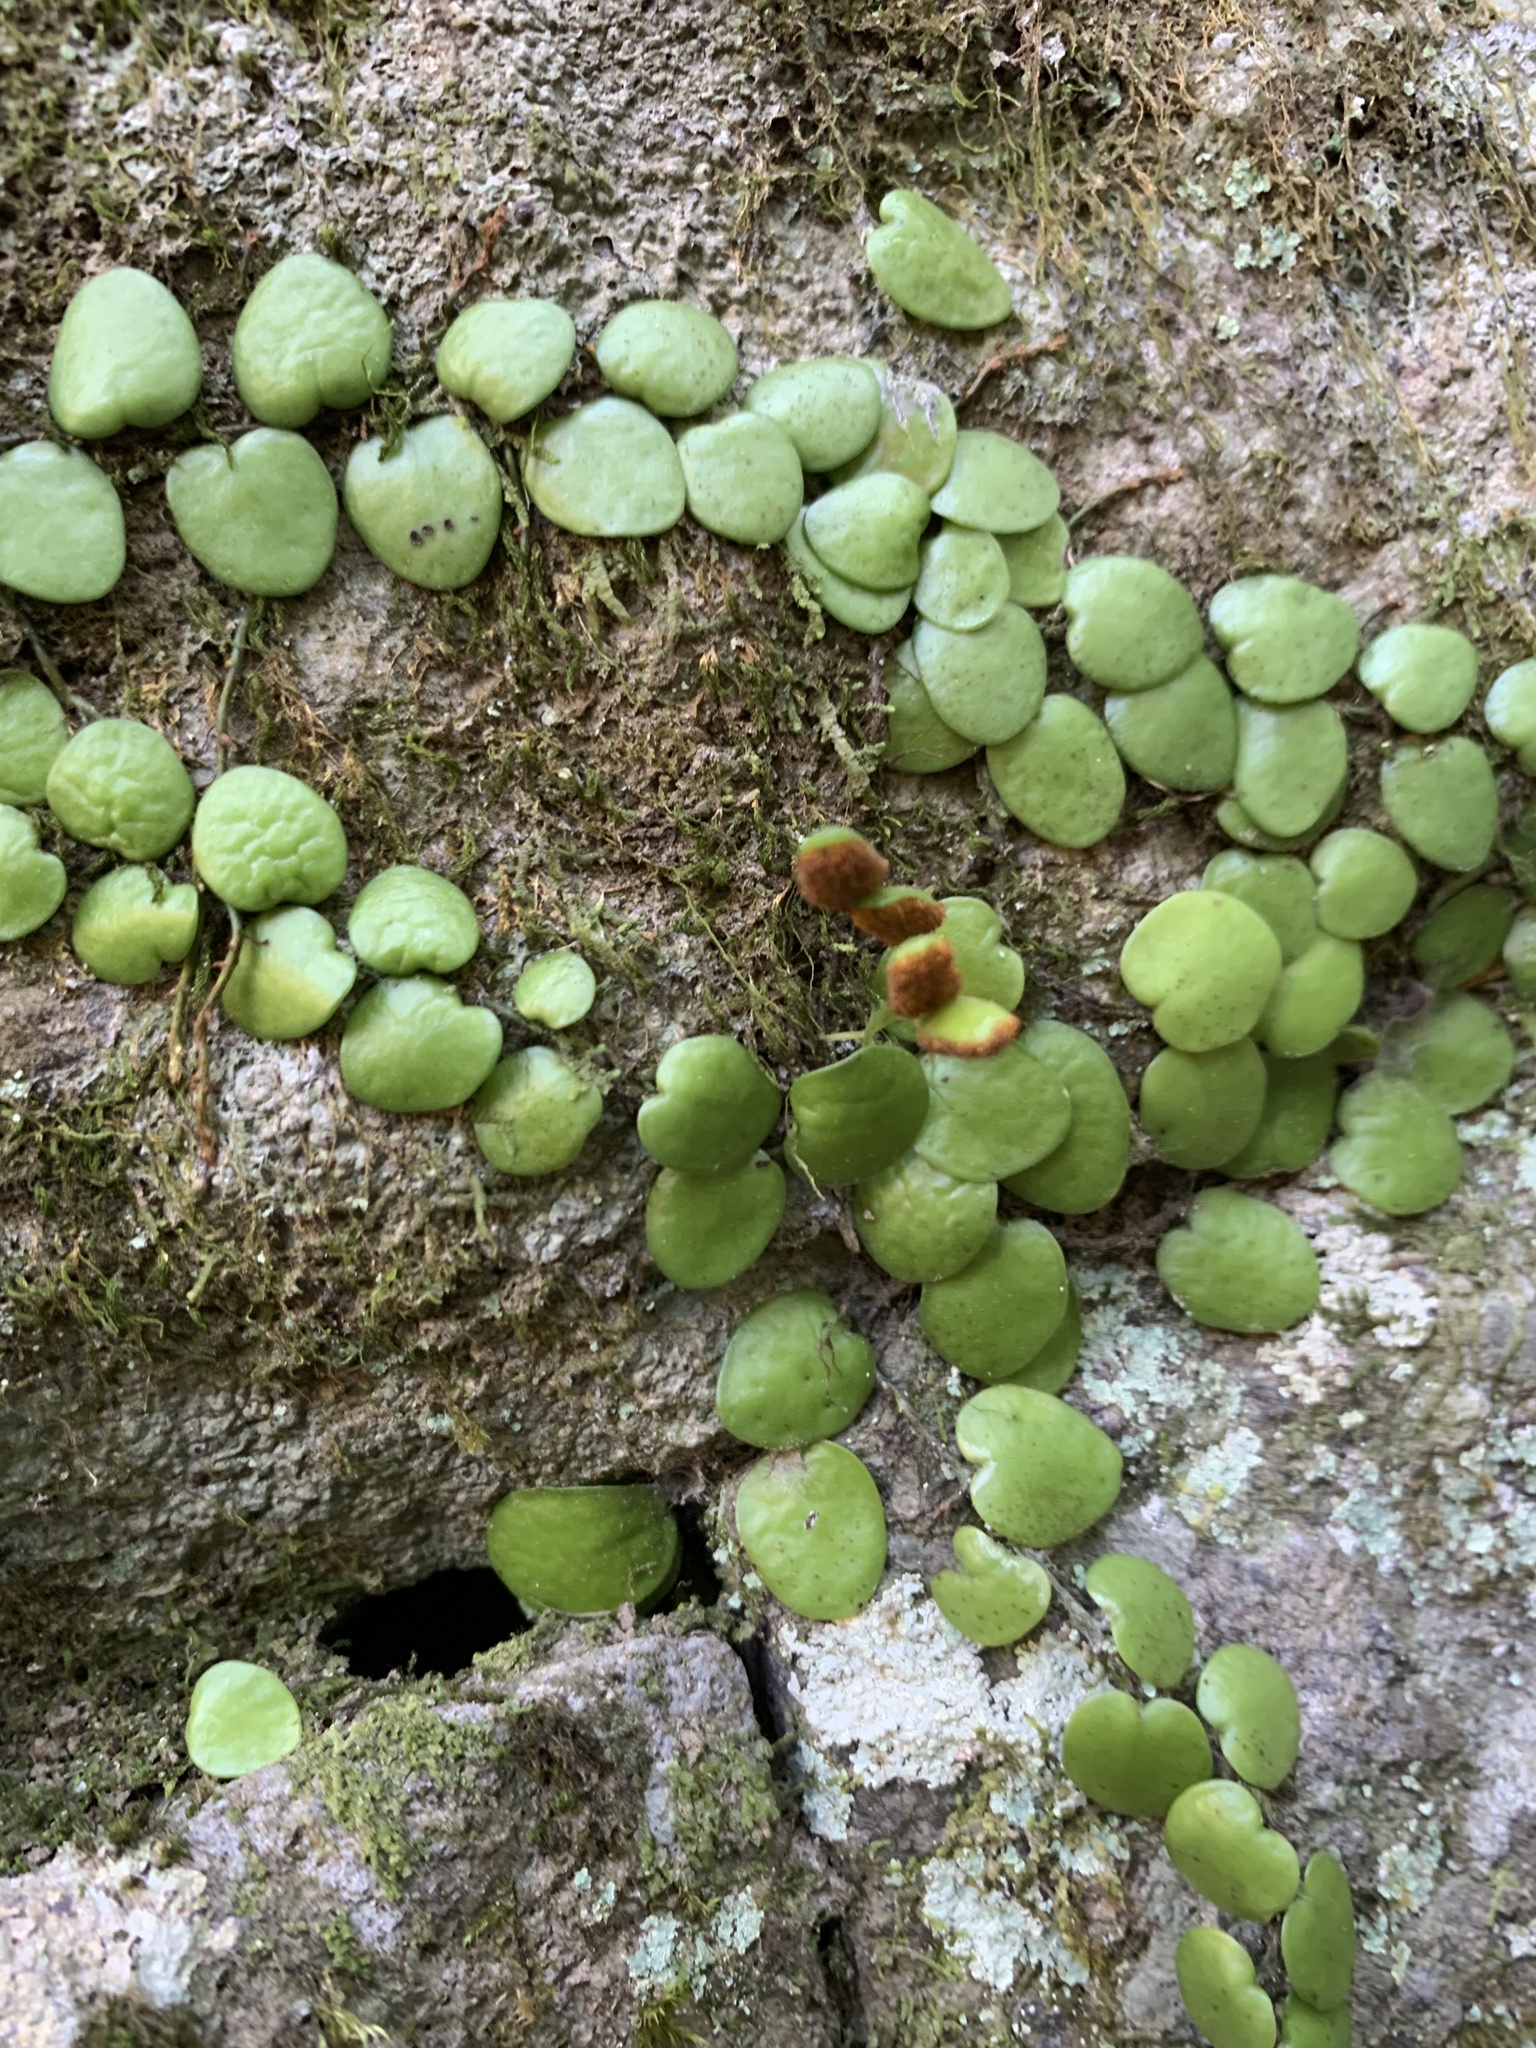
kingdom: Plantae
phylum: Tracheophyta
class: Polypodiopsida
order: Polypodiales
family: Polypodiaceae
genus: Lepisorus
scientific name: Lepisorus microphyllus
